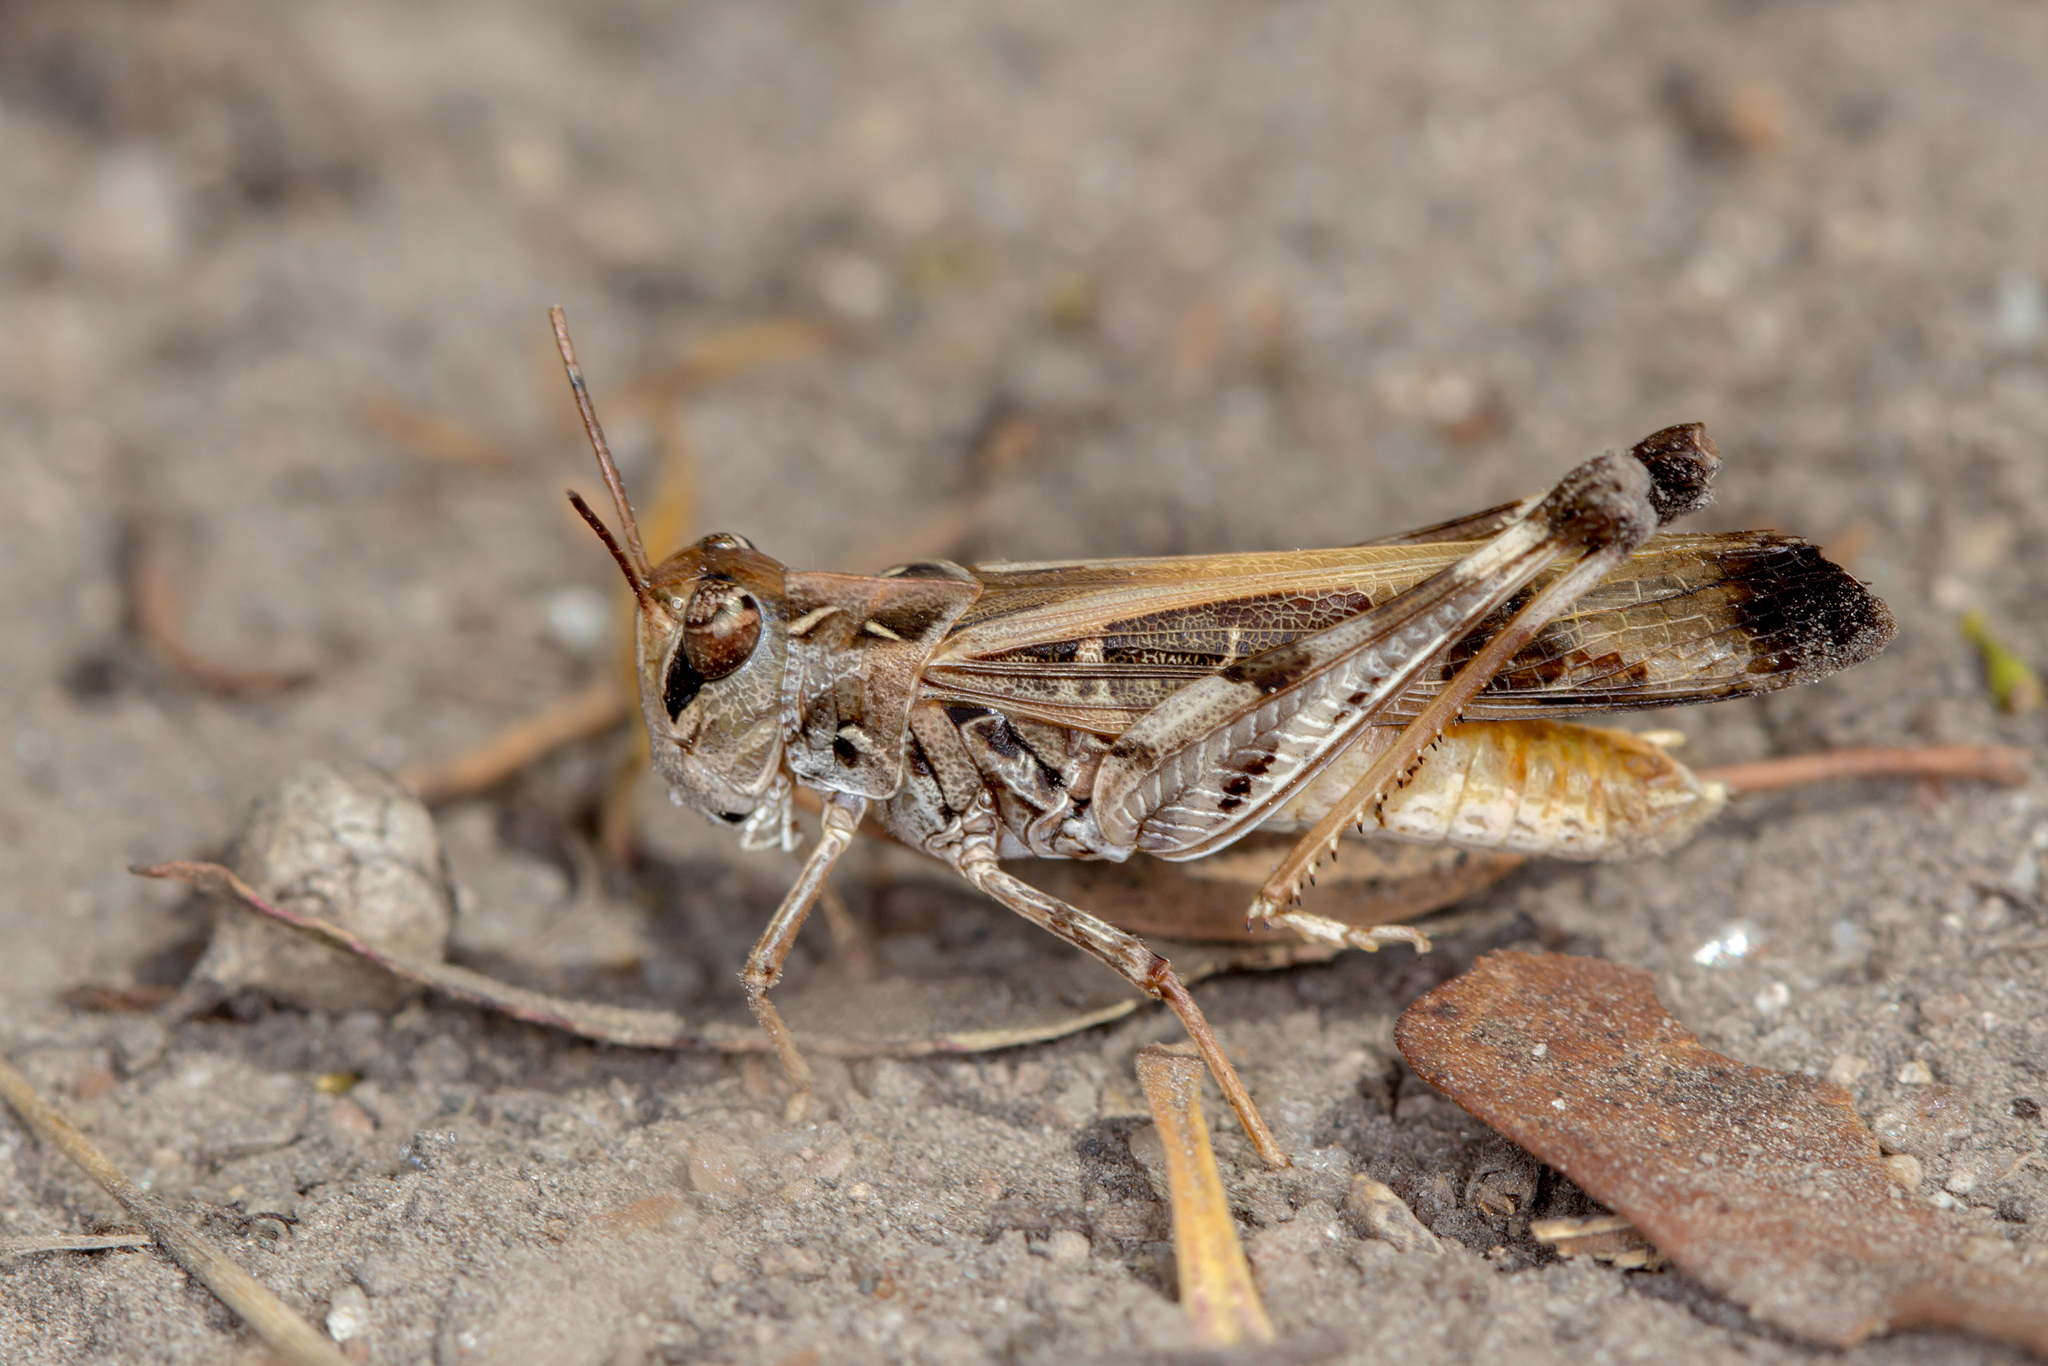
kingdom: Animalia
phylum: Arthropoda
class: Insecta
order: Orthoptera
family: Acrididae
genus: Oedaleus
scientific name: Oedaleus australis
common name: Eastern oedaleus
